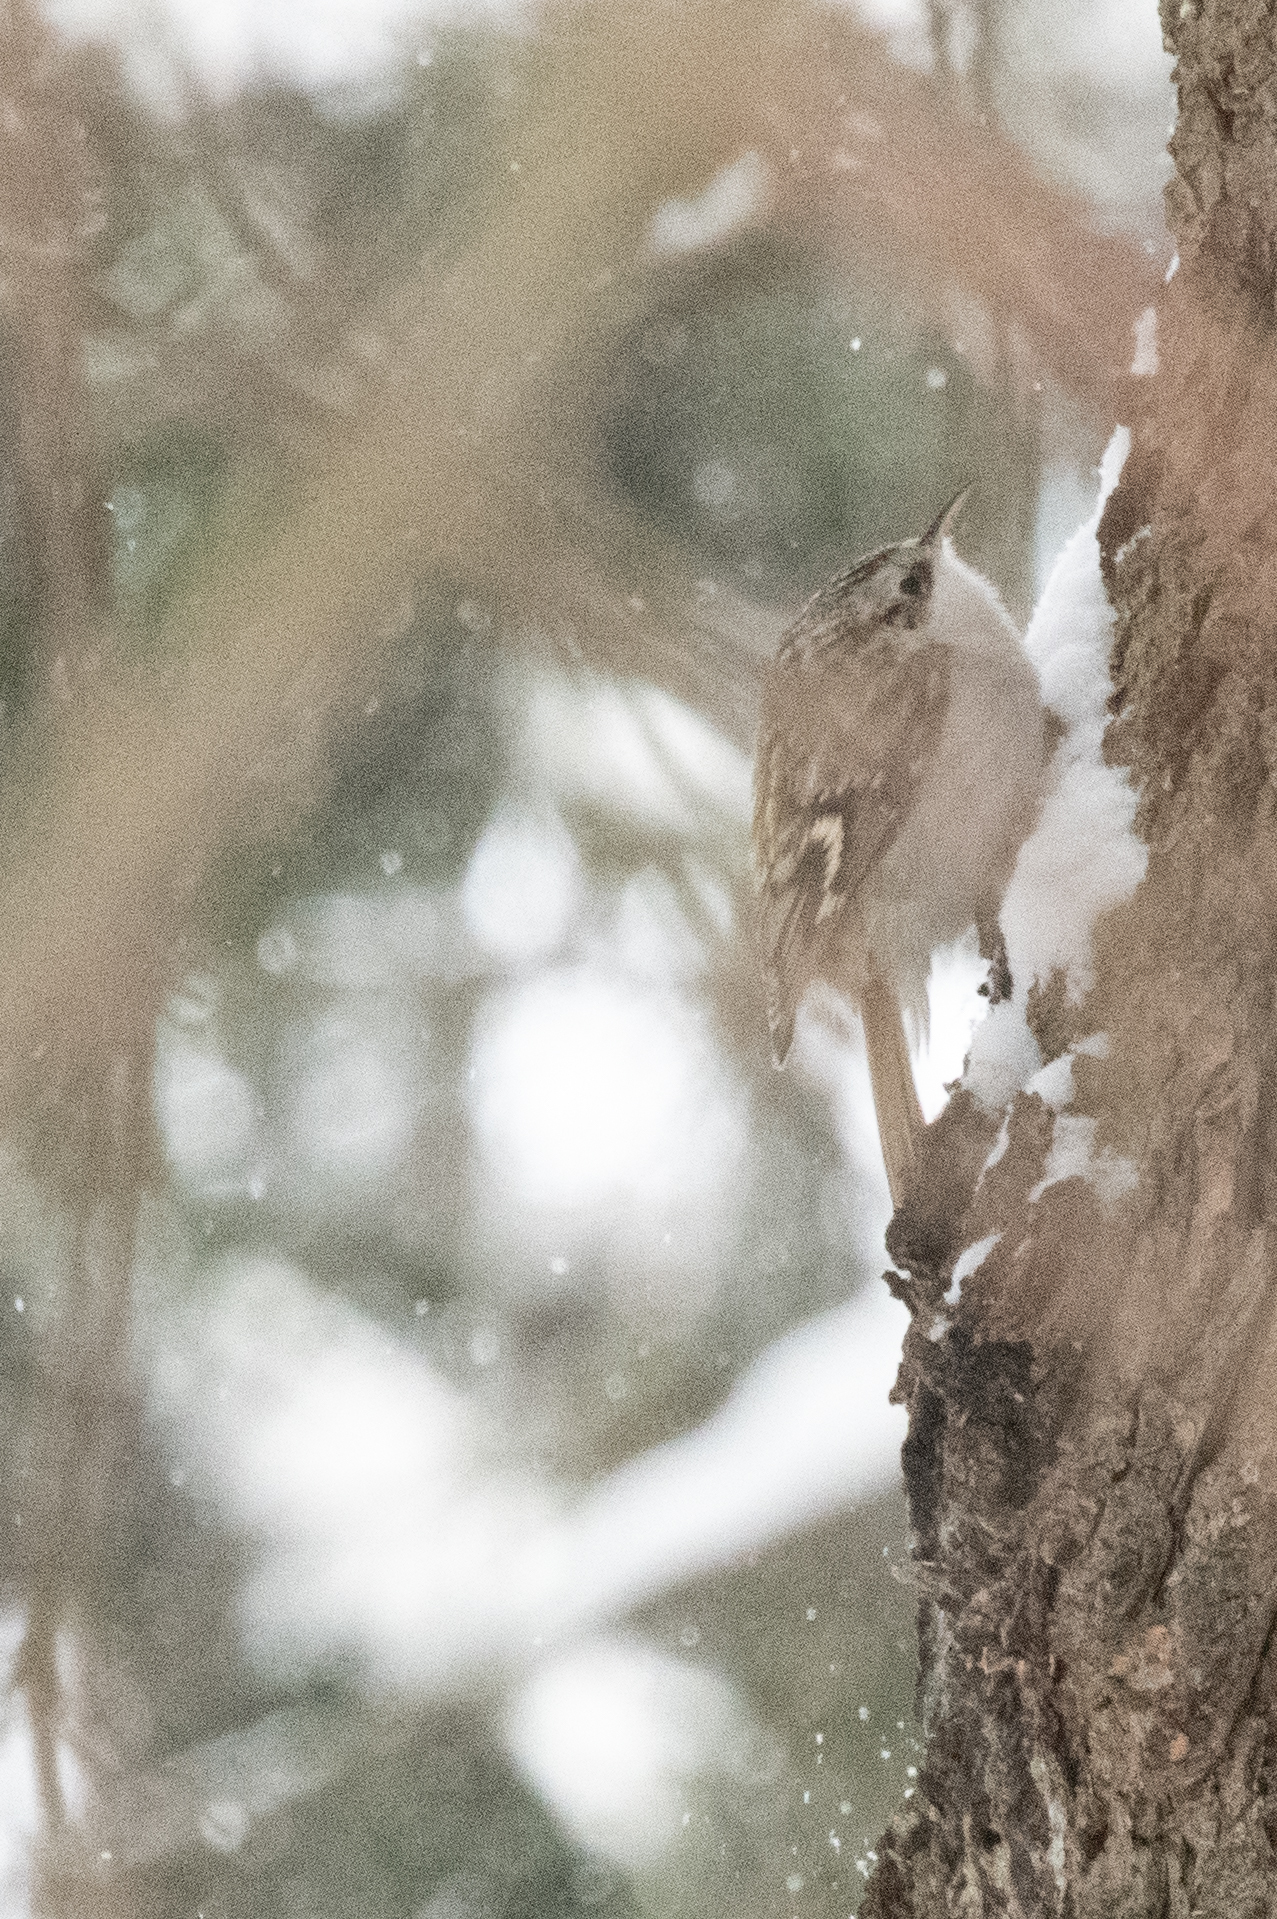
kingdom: Animalia
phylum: Chordata
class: Aves
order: Passeriformes
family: Certhiidae
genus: Certhia
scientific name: Certhia familiaris
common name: Eurasian treecreeper
